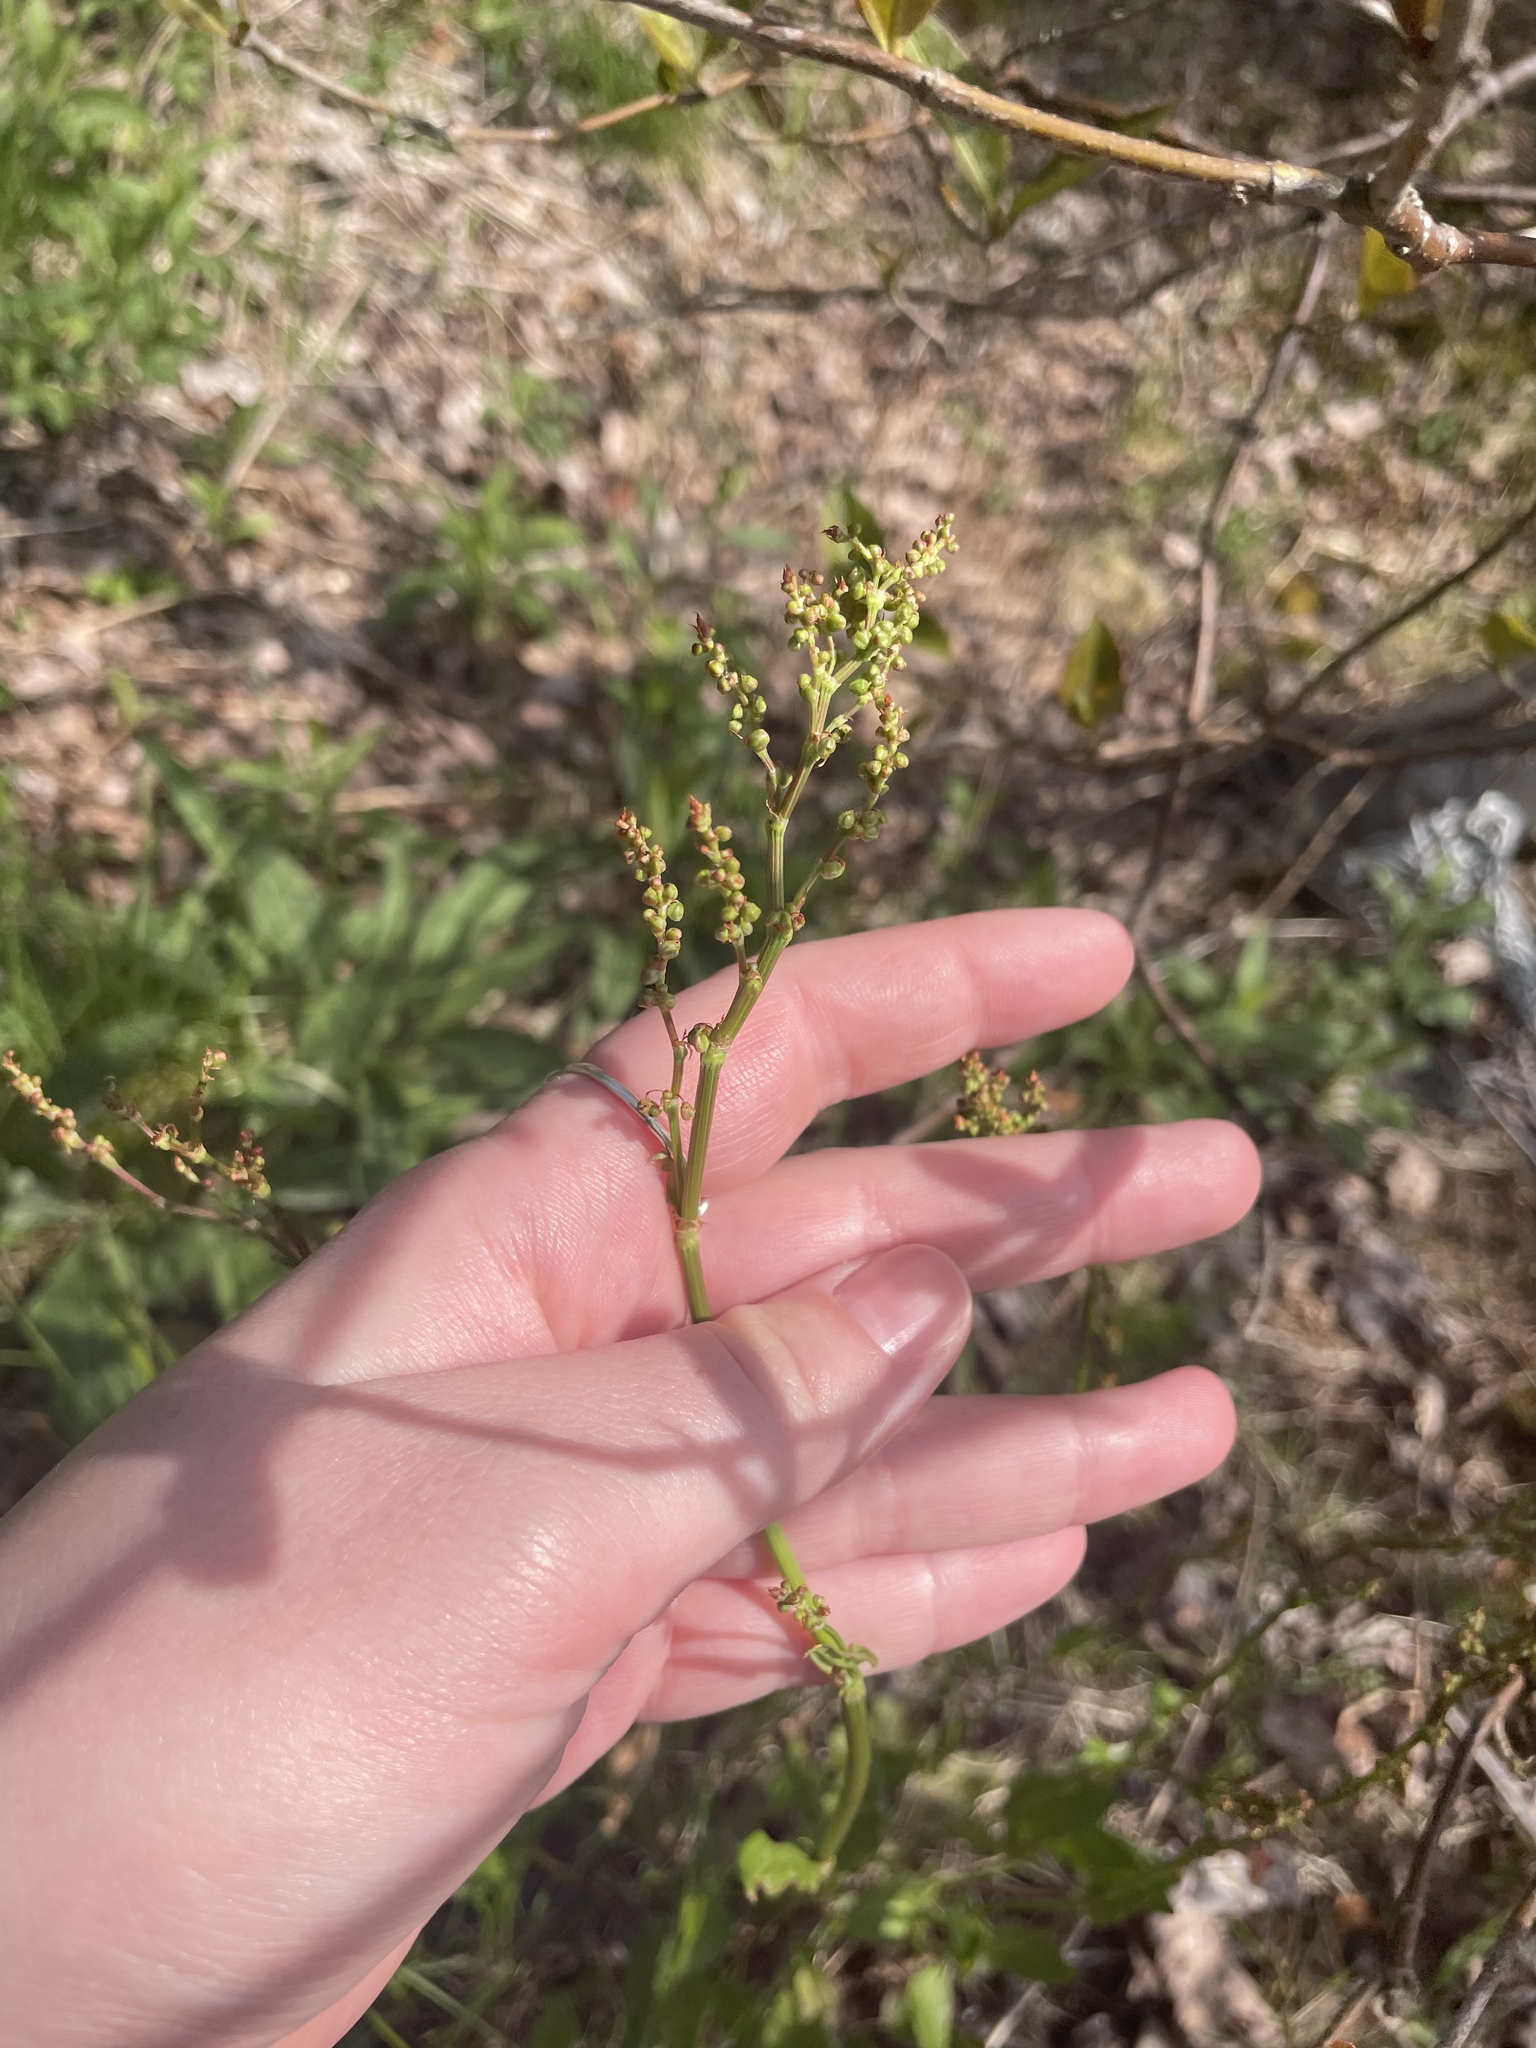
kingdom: Plantae
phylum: Tracheophyta
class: Magnoliopsida
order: Caryophyllales
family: Polygonaceae
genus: Rumex
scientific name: Rumex acetosella
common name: Common sheep sorrel
